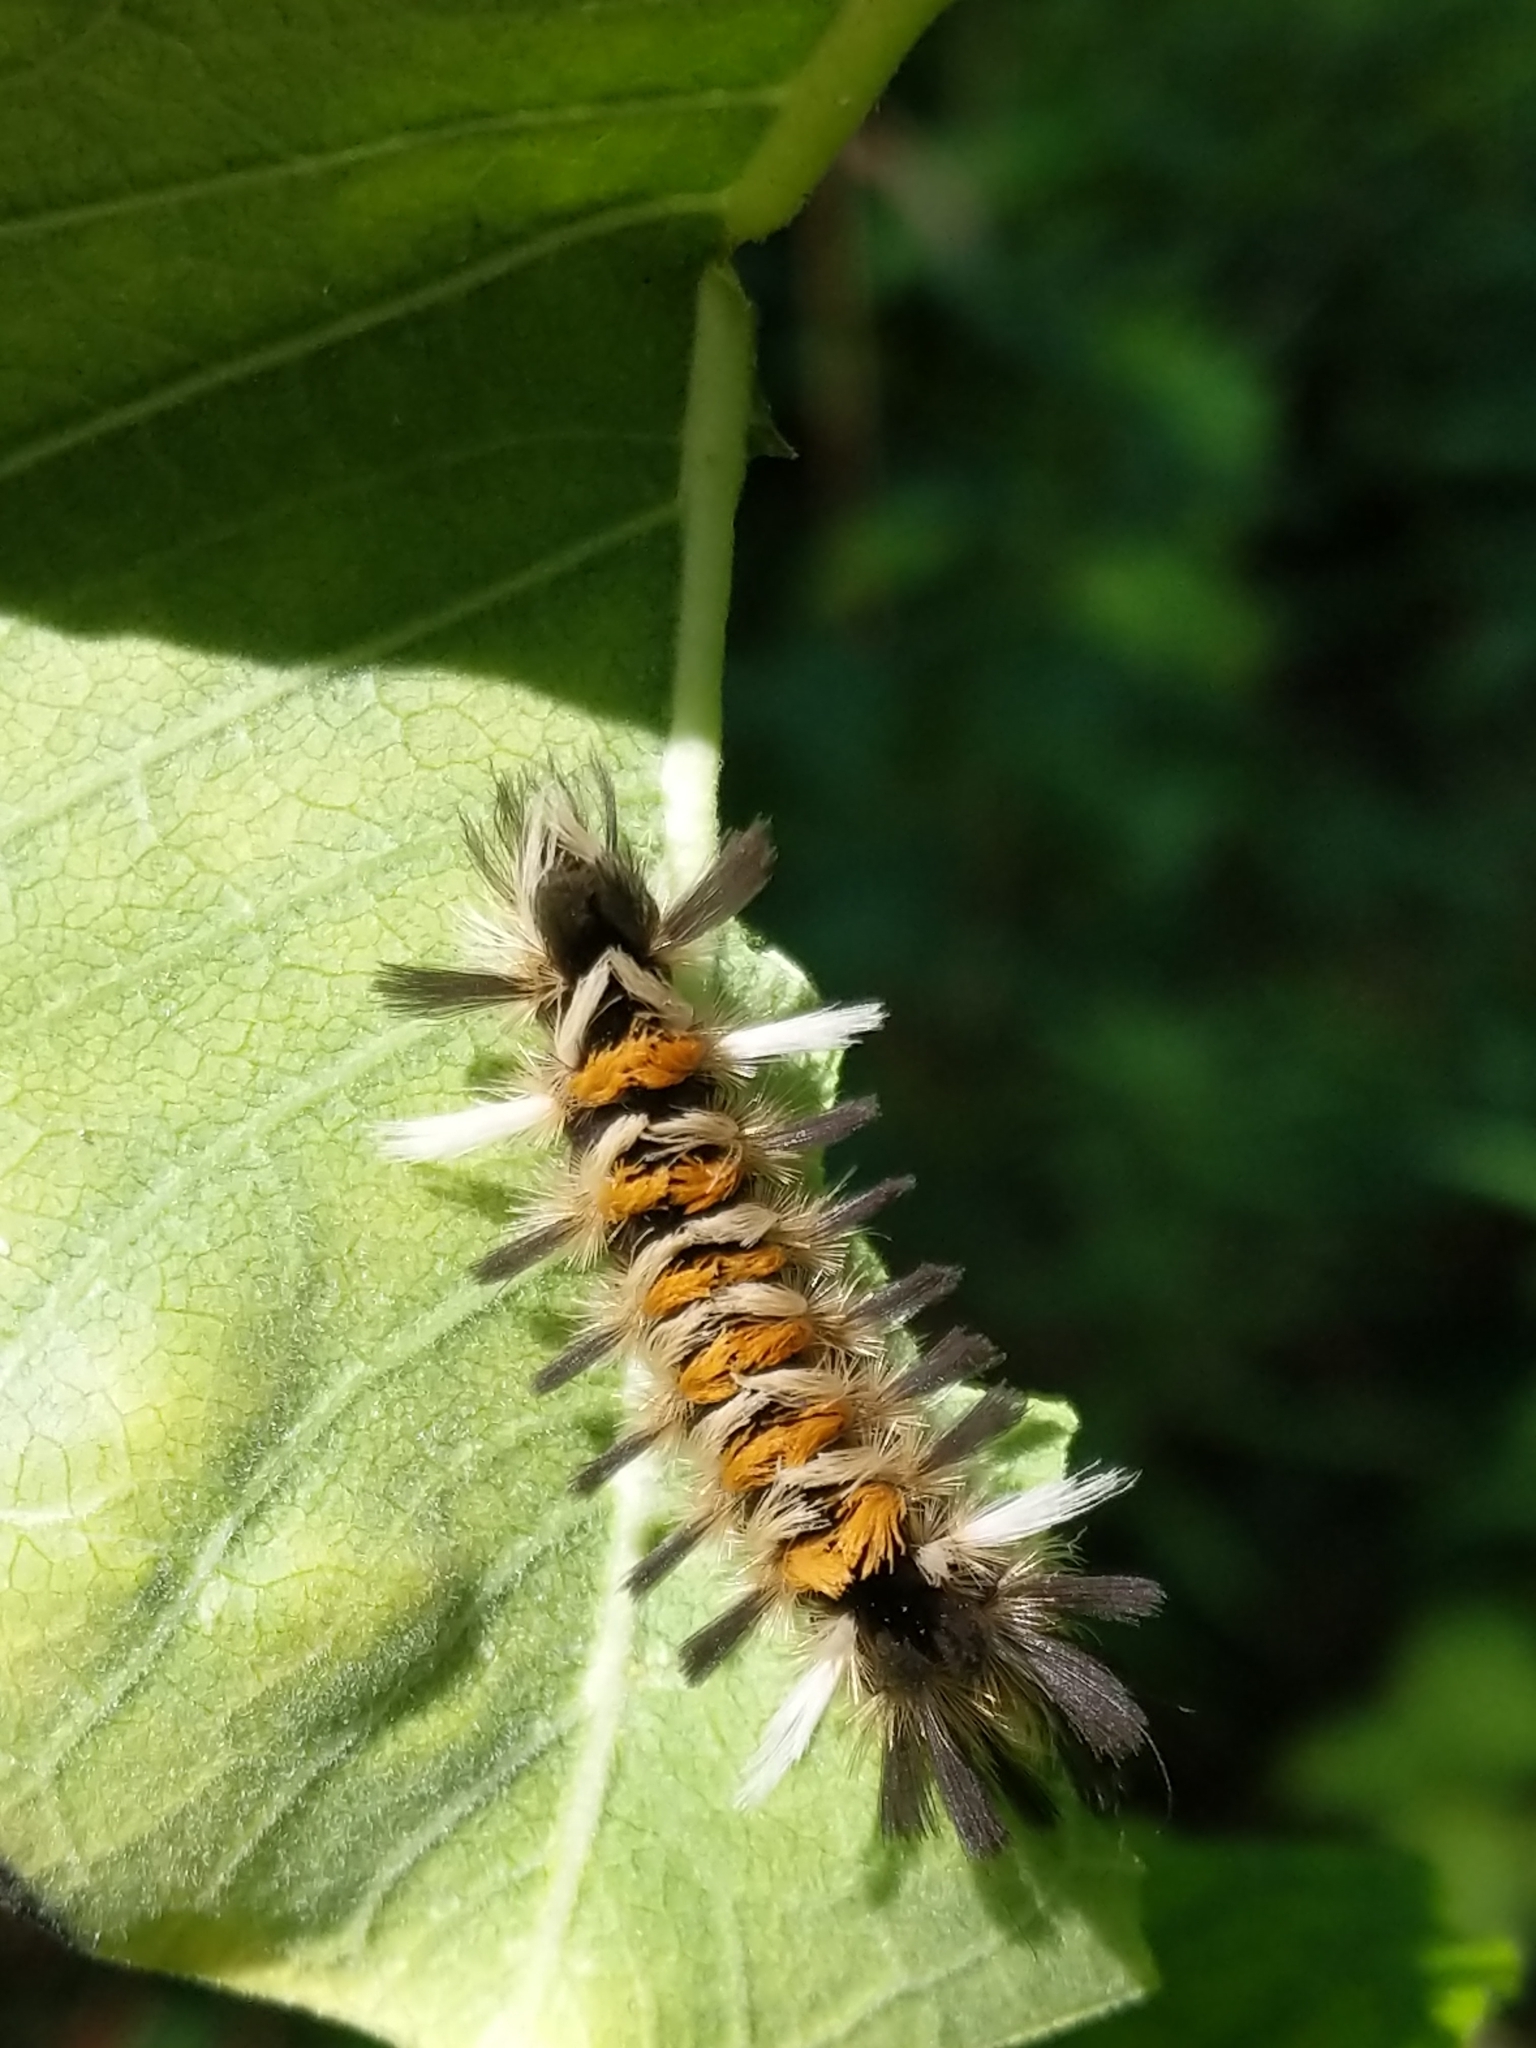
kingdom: Animalia
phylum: Arthropoda
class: Insecta
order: Lepidoptera
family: Erebidae
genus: Euchaetes
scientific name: Euchaetes egle
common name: Milkweed tussock moth
